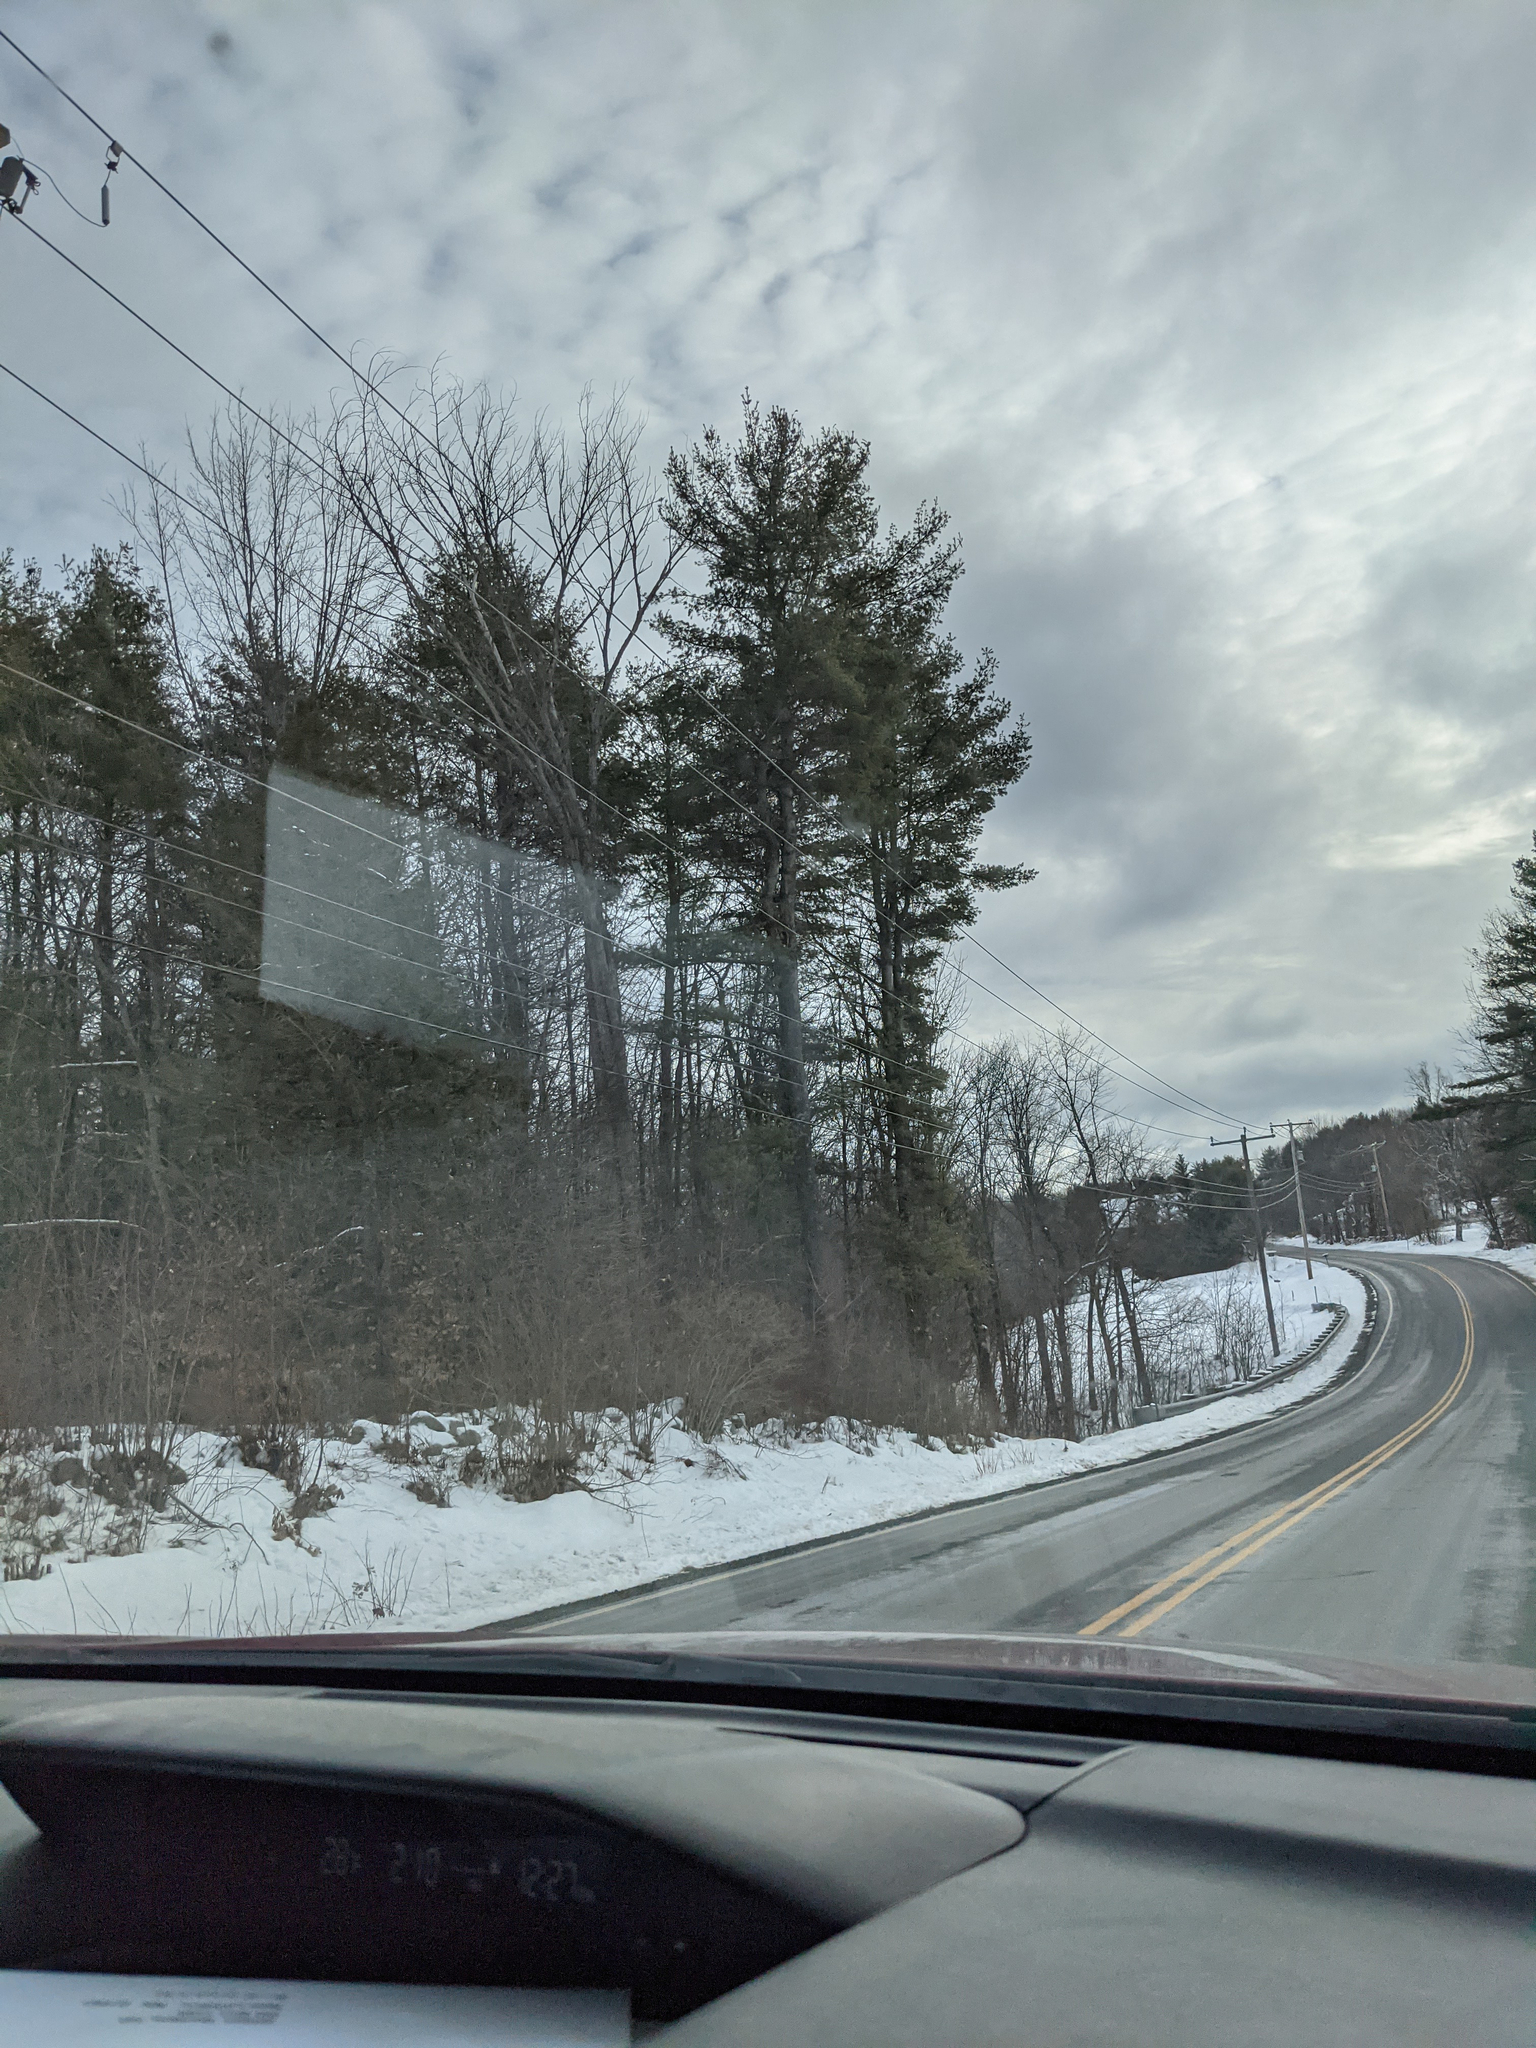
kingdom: Plantae
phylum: Tracheophyta
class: Pinopsida
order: Pinales
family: Pinaceae
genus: Pinus
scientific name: Pinus strobus
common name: Weymouth pine
